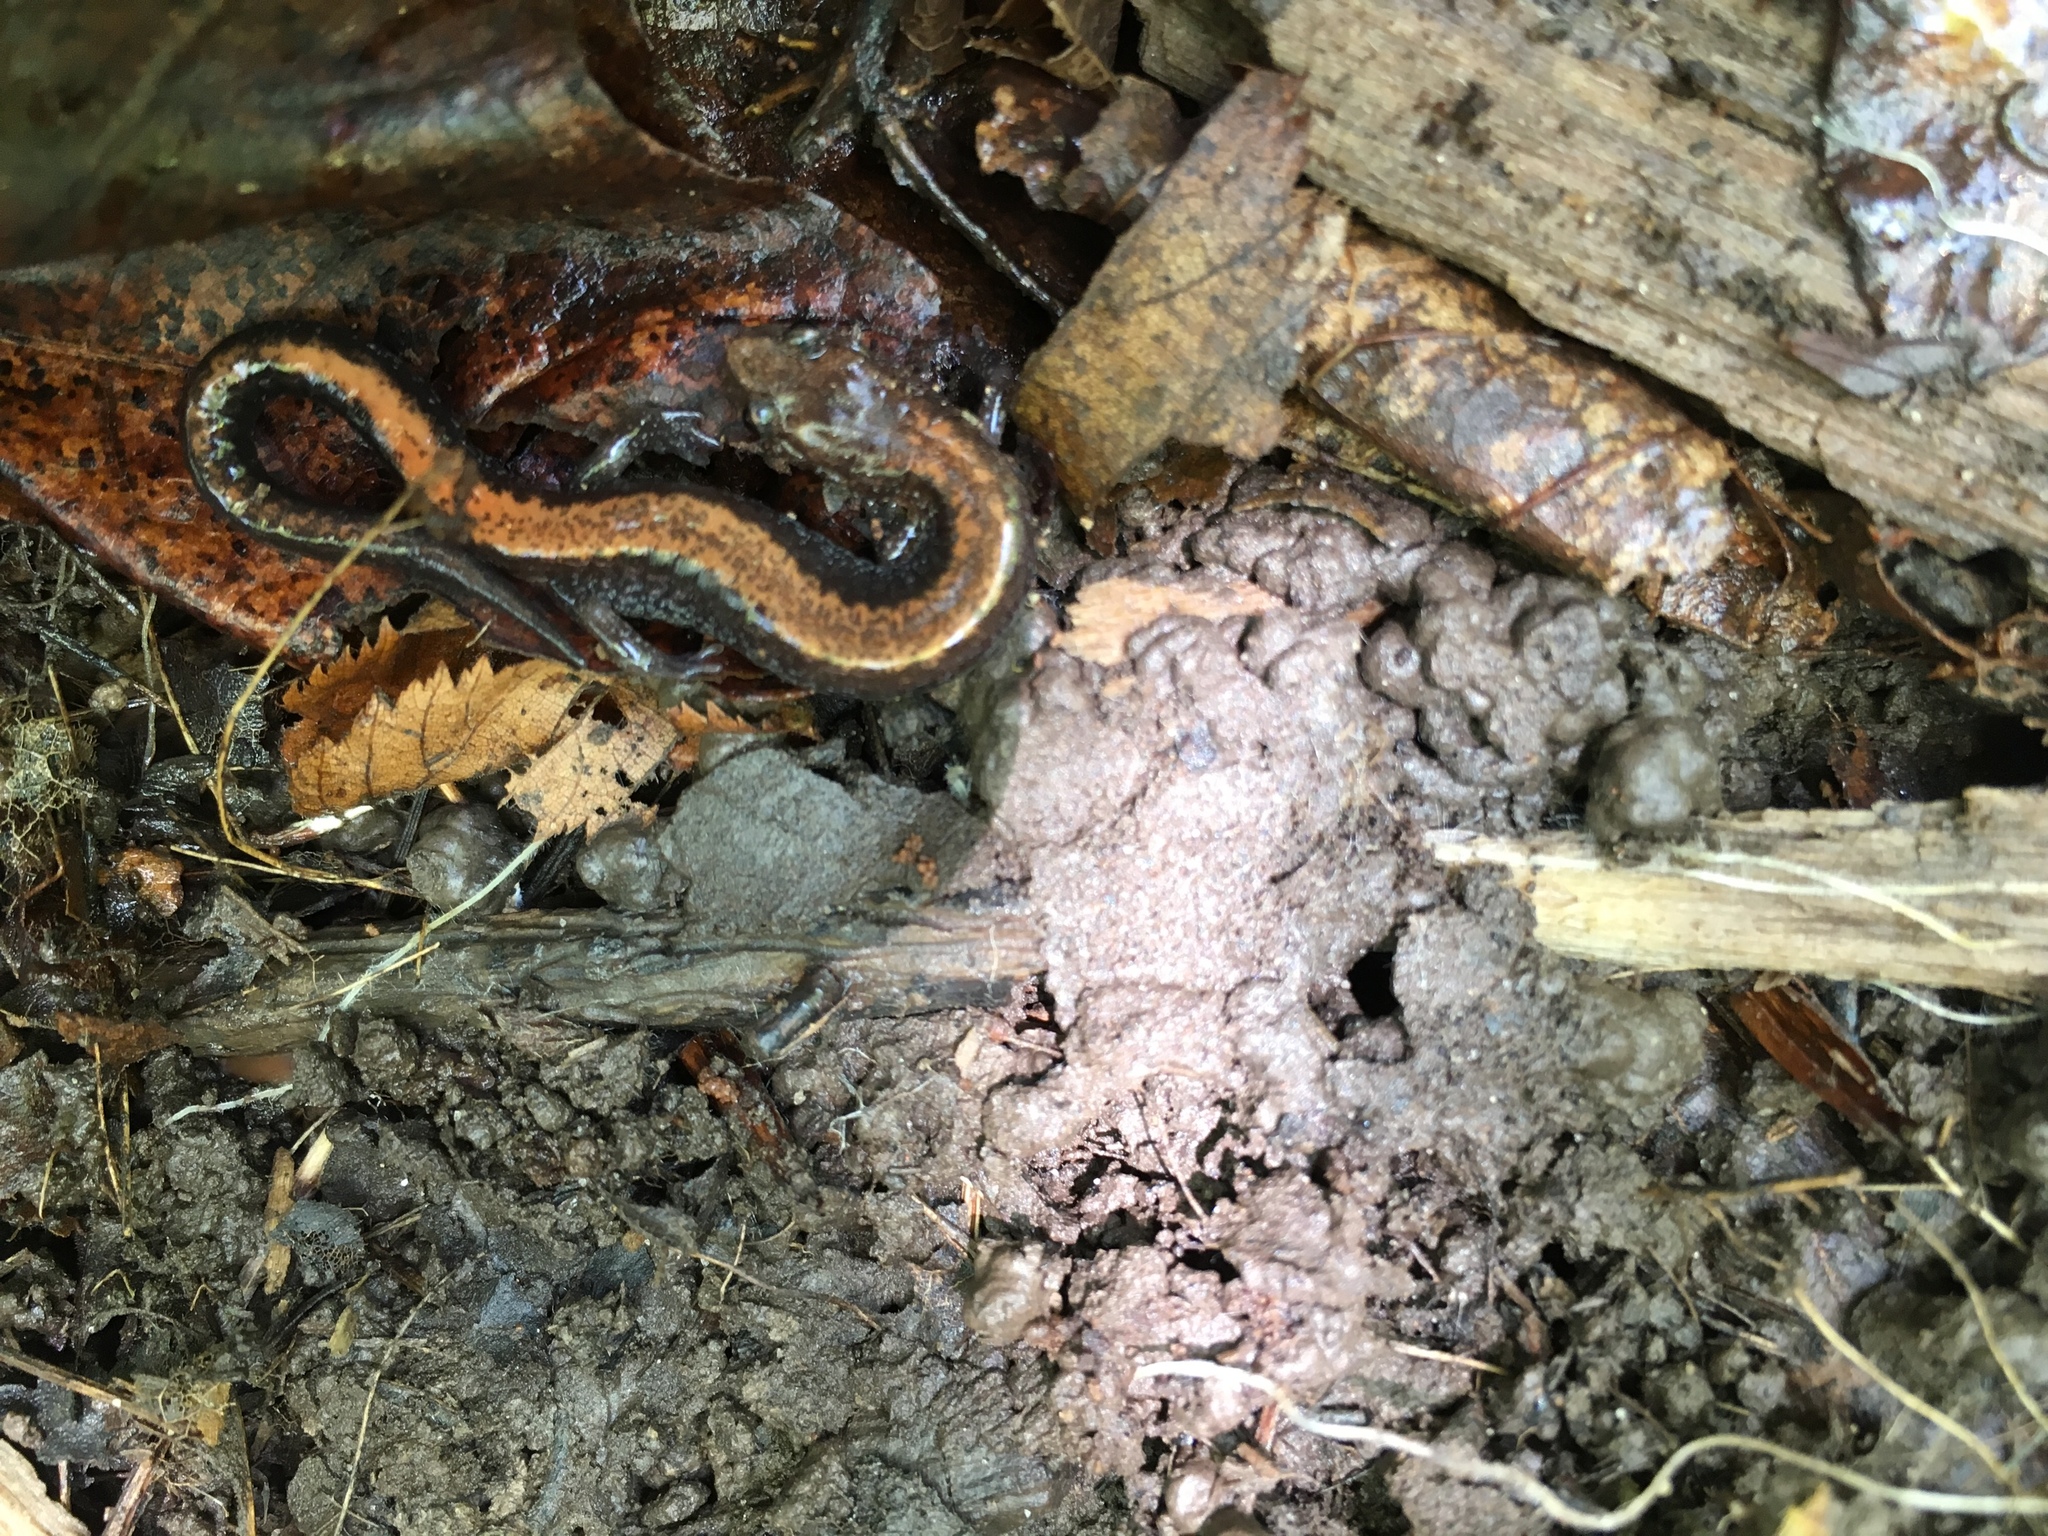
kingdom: Animalia
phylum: Chordata
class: Amphibia
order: Caudata
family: Plethodontidae
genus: Plethodon
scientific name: Plethodon cinereus
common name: Redback salamander
